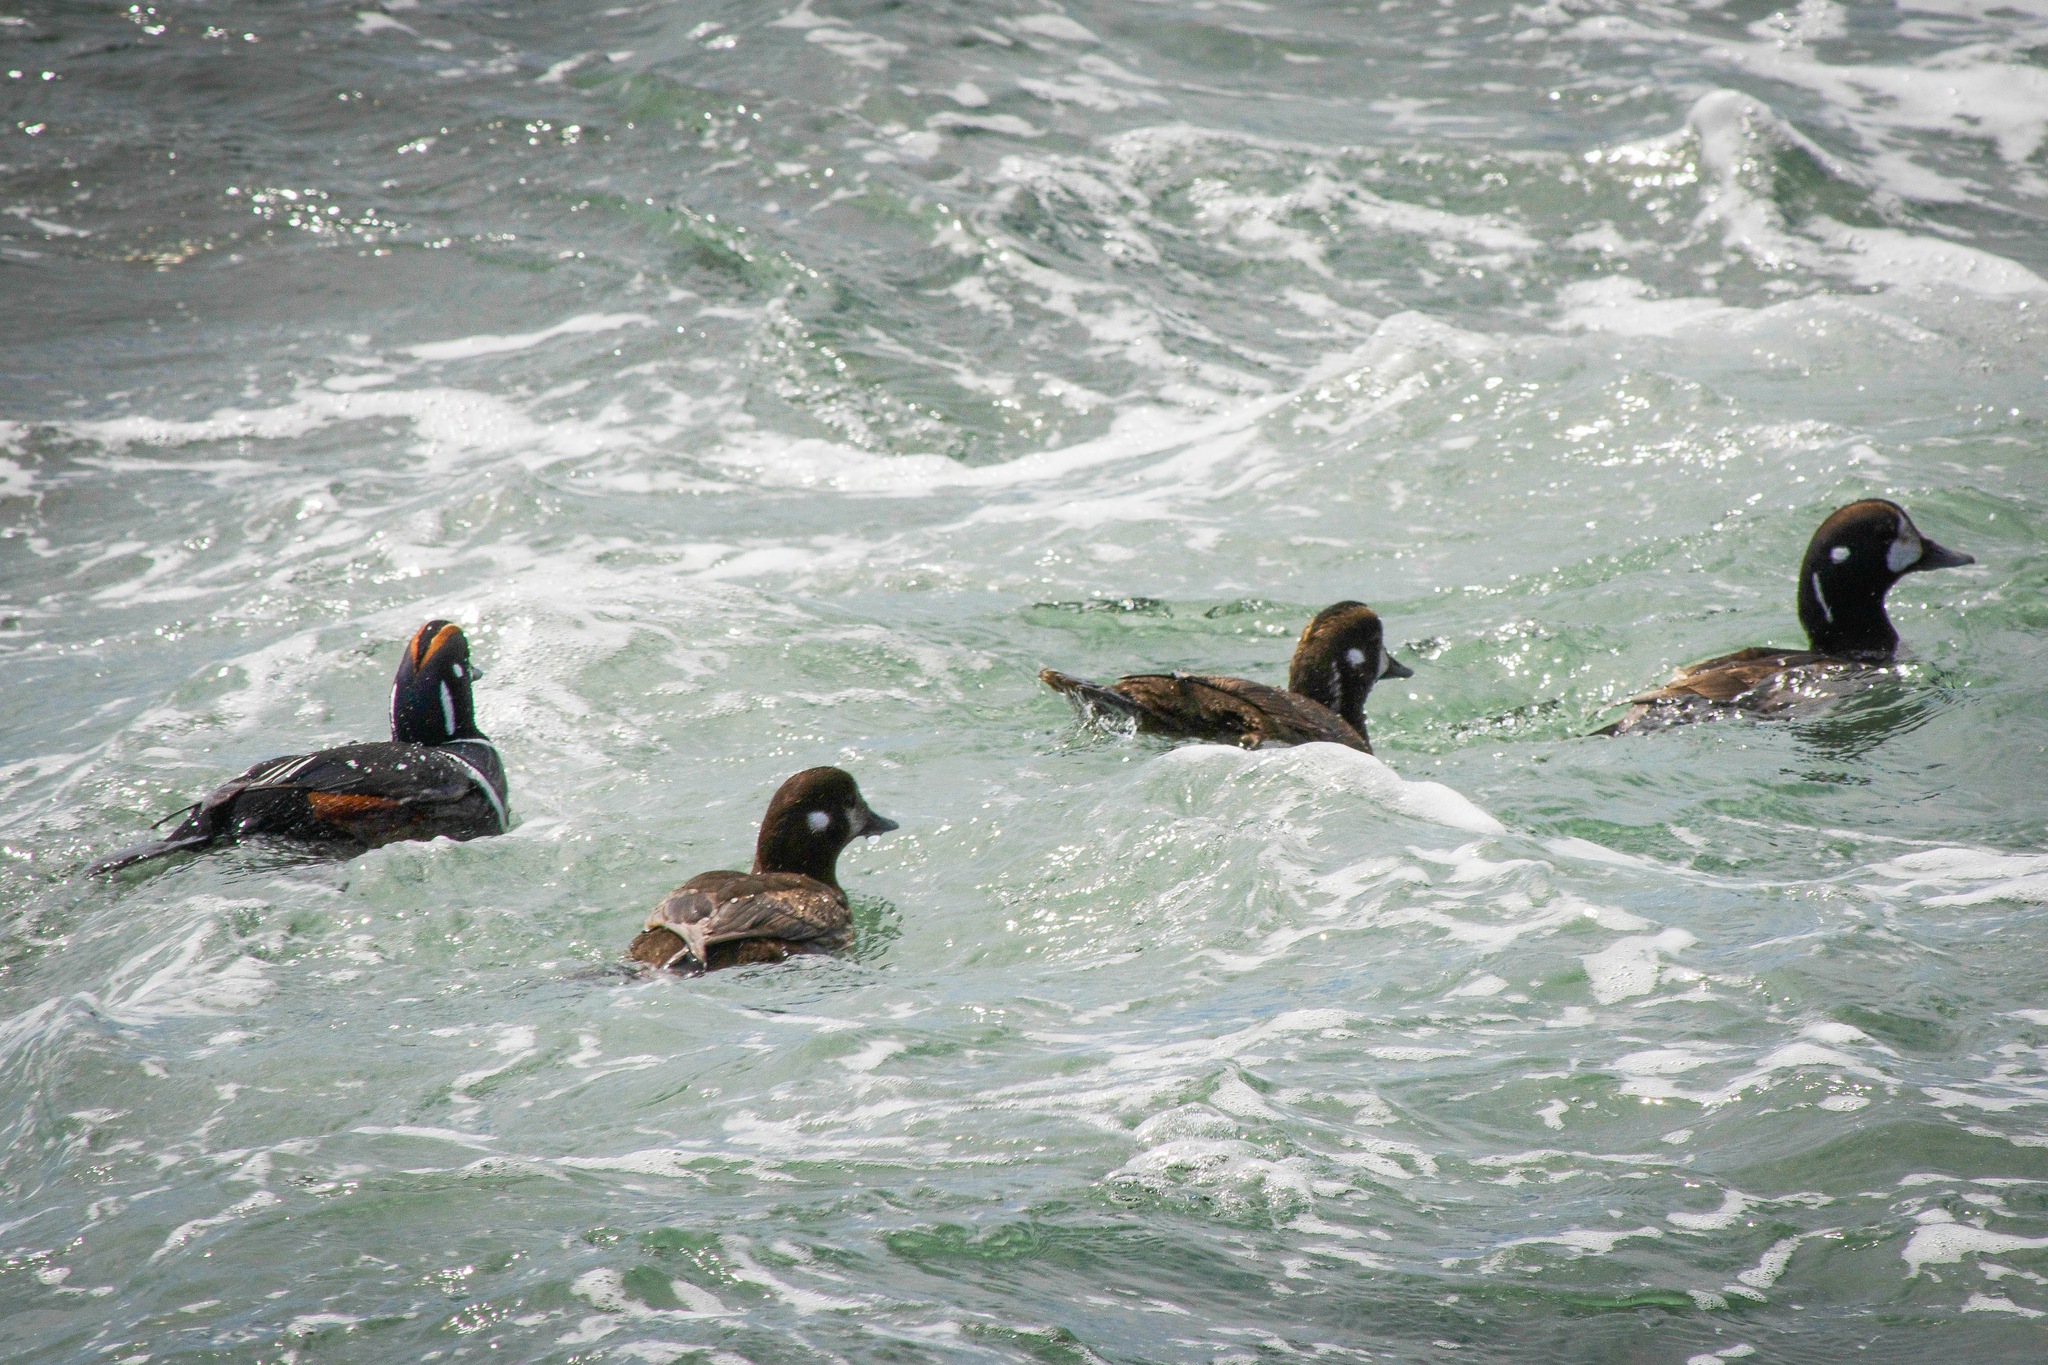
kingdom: Animalia
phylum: Chordata
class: Aves
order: Anseriformes
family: Anatidae
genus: Histrionicus
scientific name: Histrionicus histrionicus
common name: Harlequin duck
